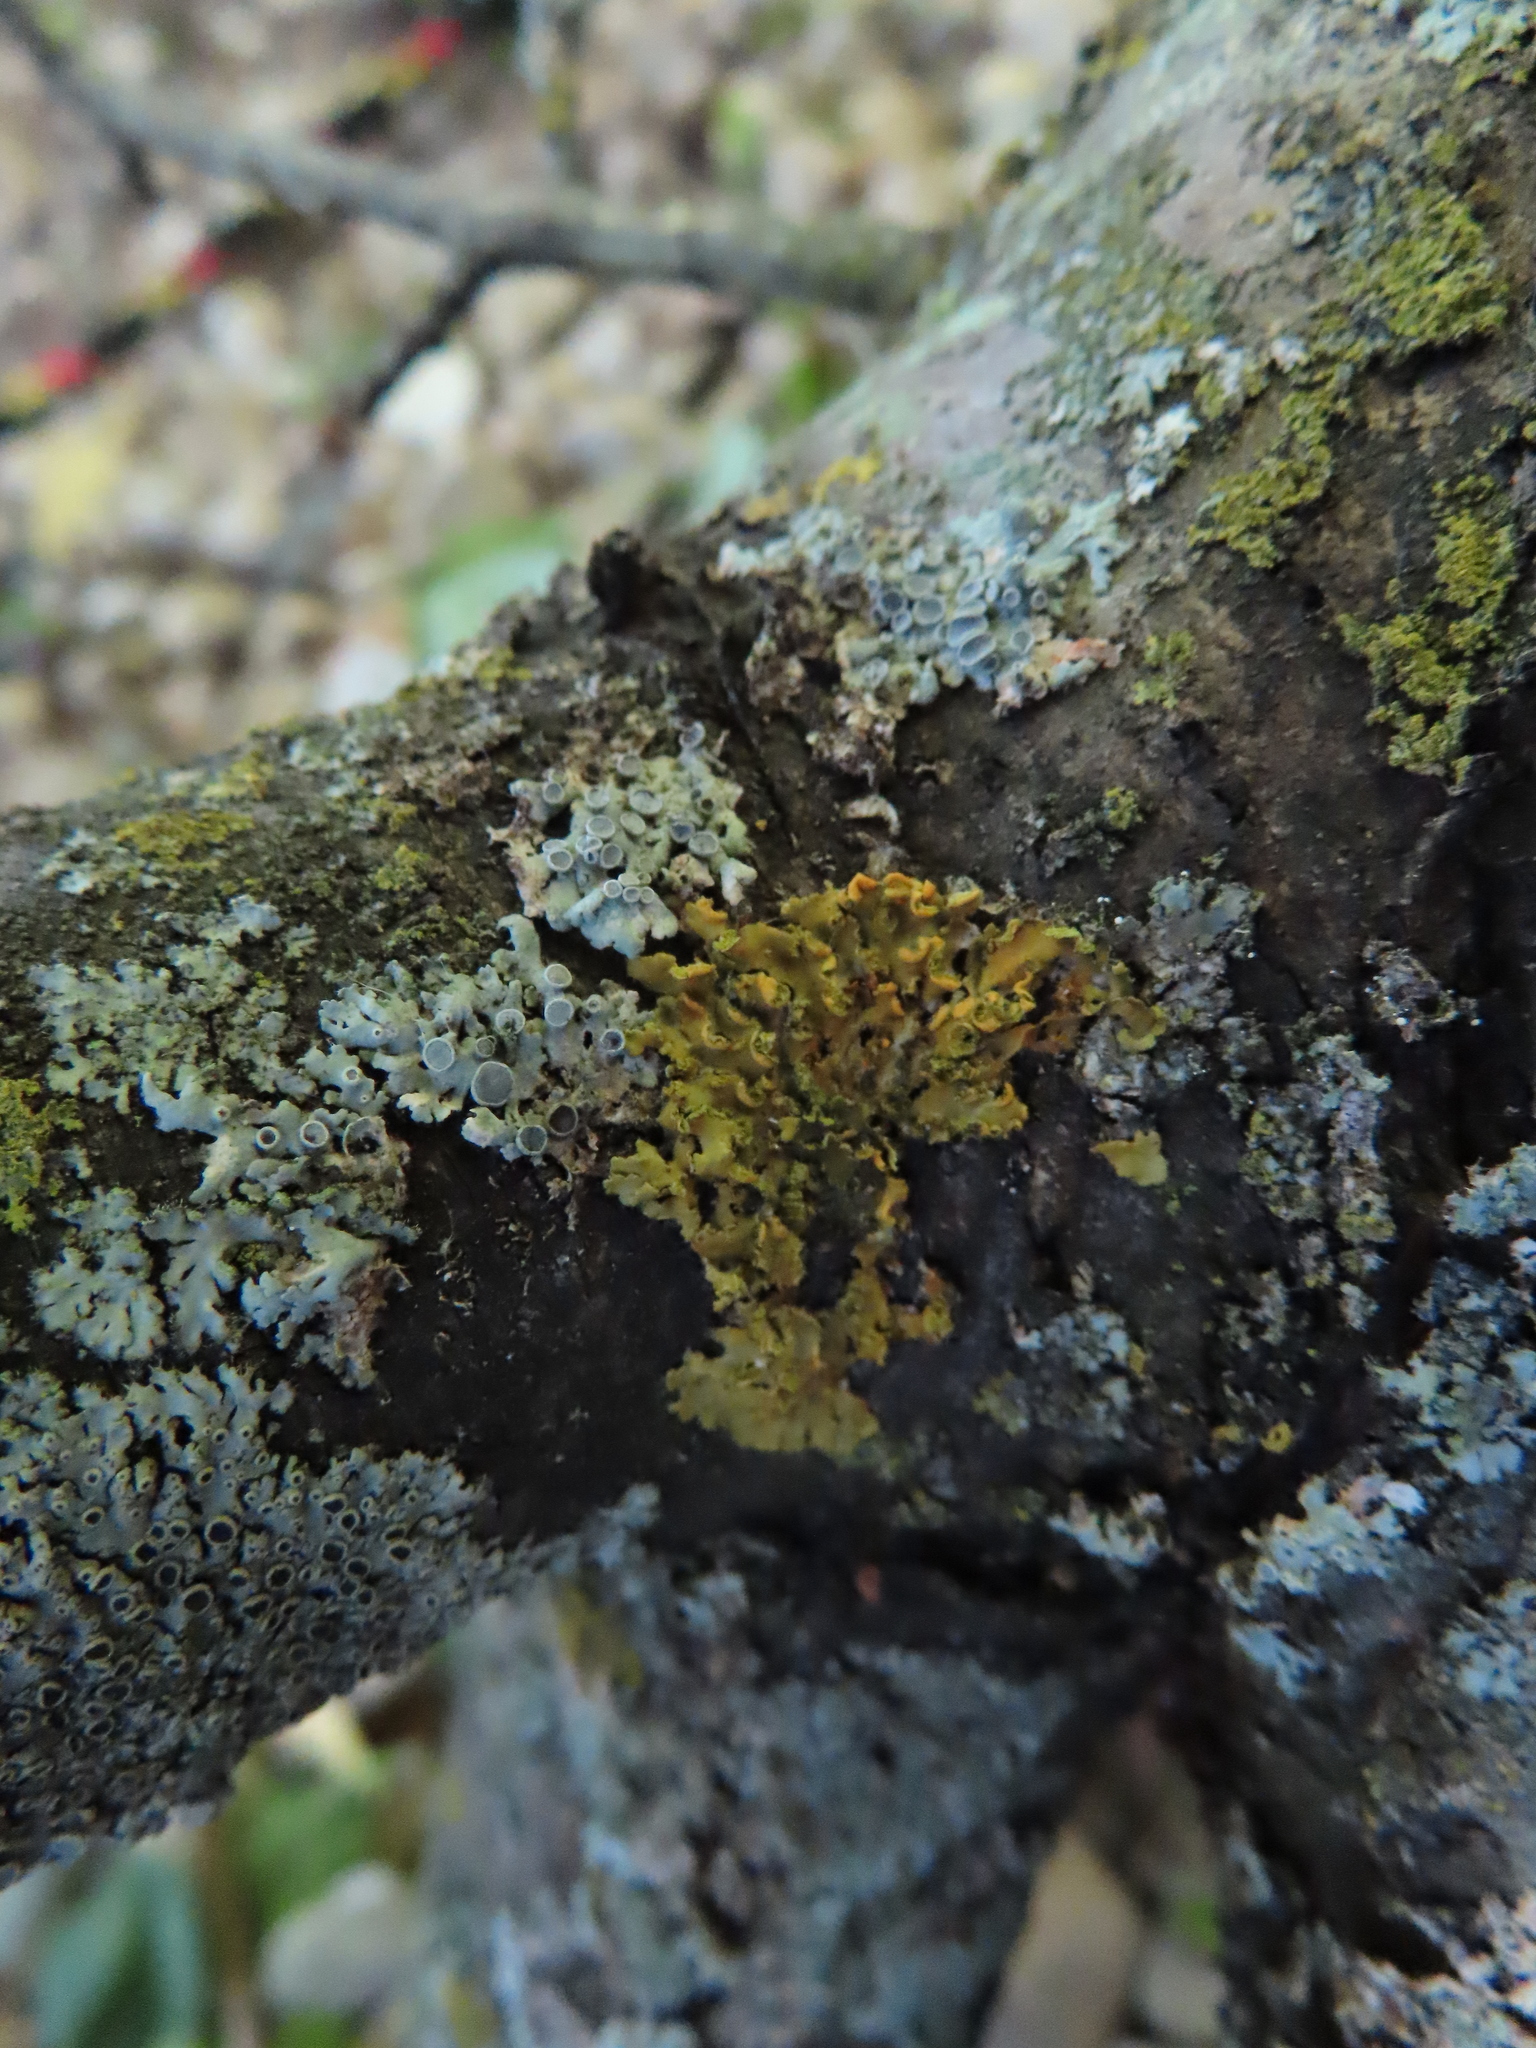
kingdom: Fungi
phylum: Ascomycota
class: Lecanoromycetes
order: Teloschistales
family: Teloschistaceae
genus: Oxneria
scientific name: Oxneria fallax
